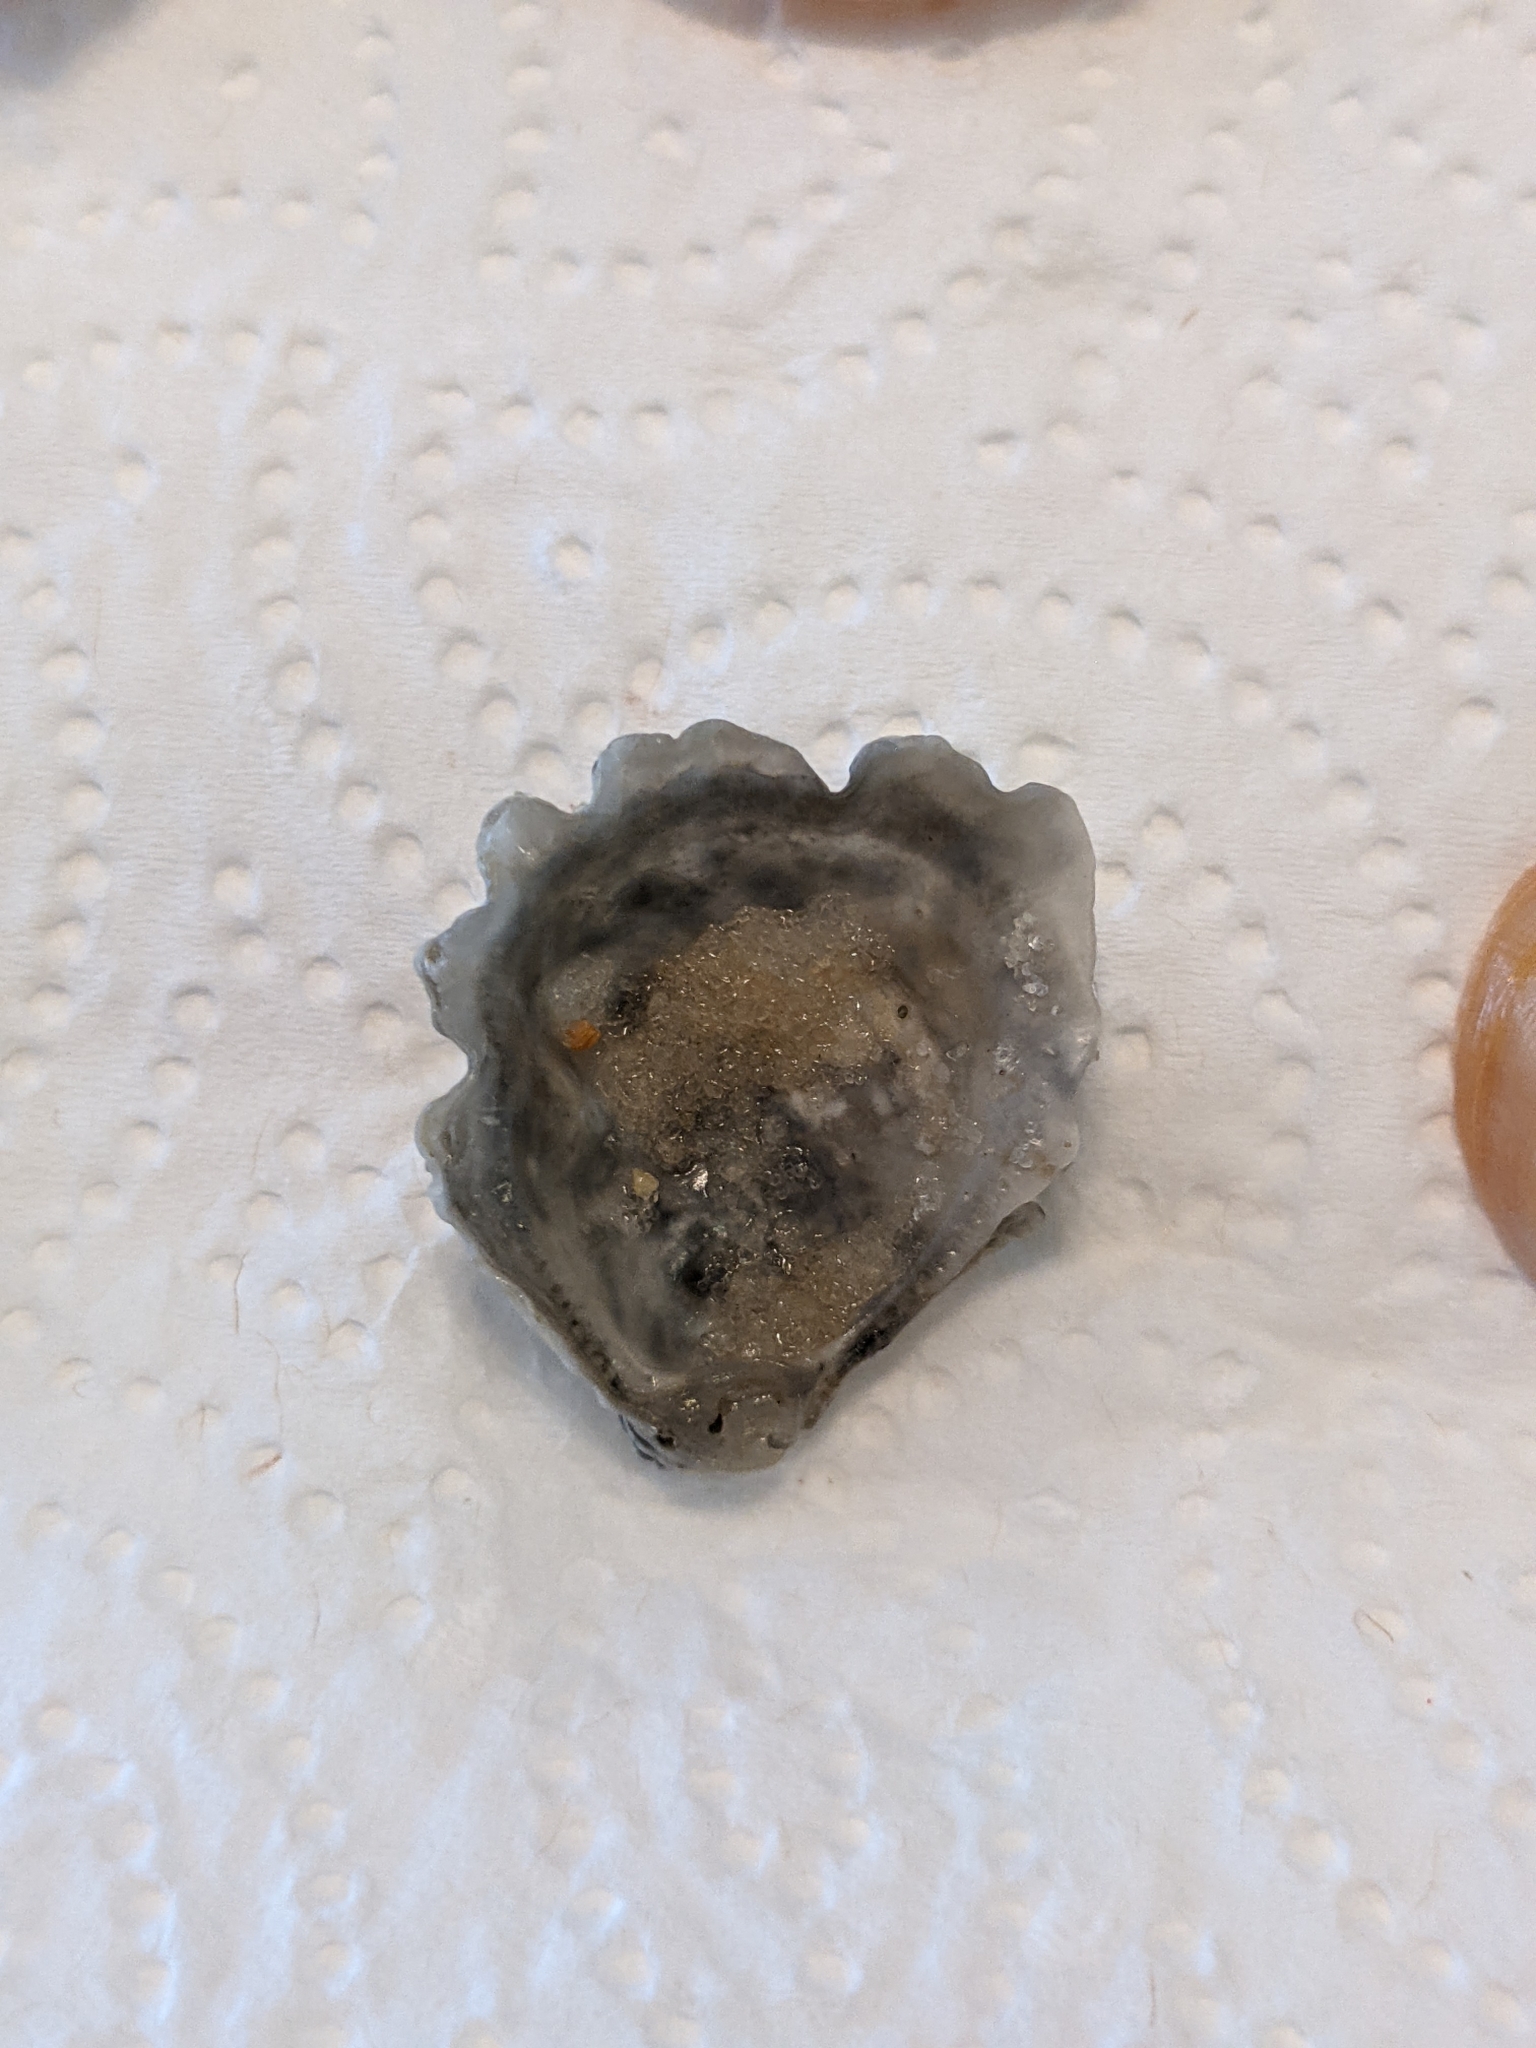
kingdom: Animalia
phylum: Mollusca
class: Bivalvia
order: Ostreida
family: Ostreidae
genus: Ostrea
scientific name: Ostrea equestris
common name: Crested oyster
